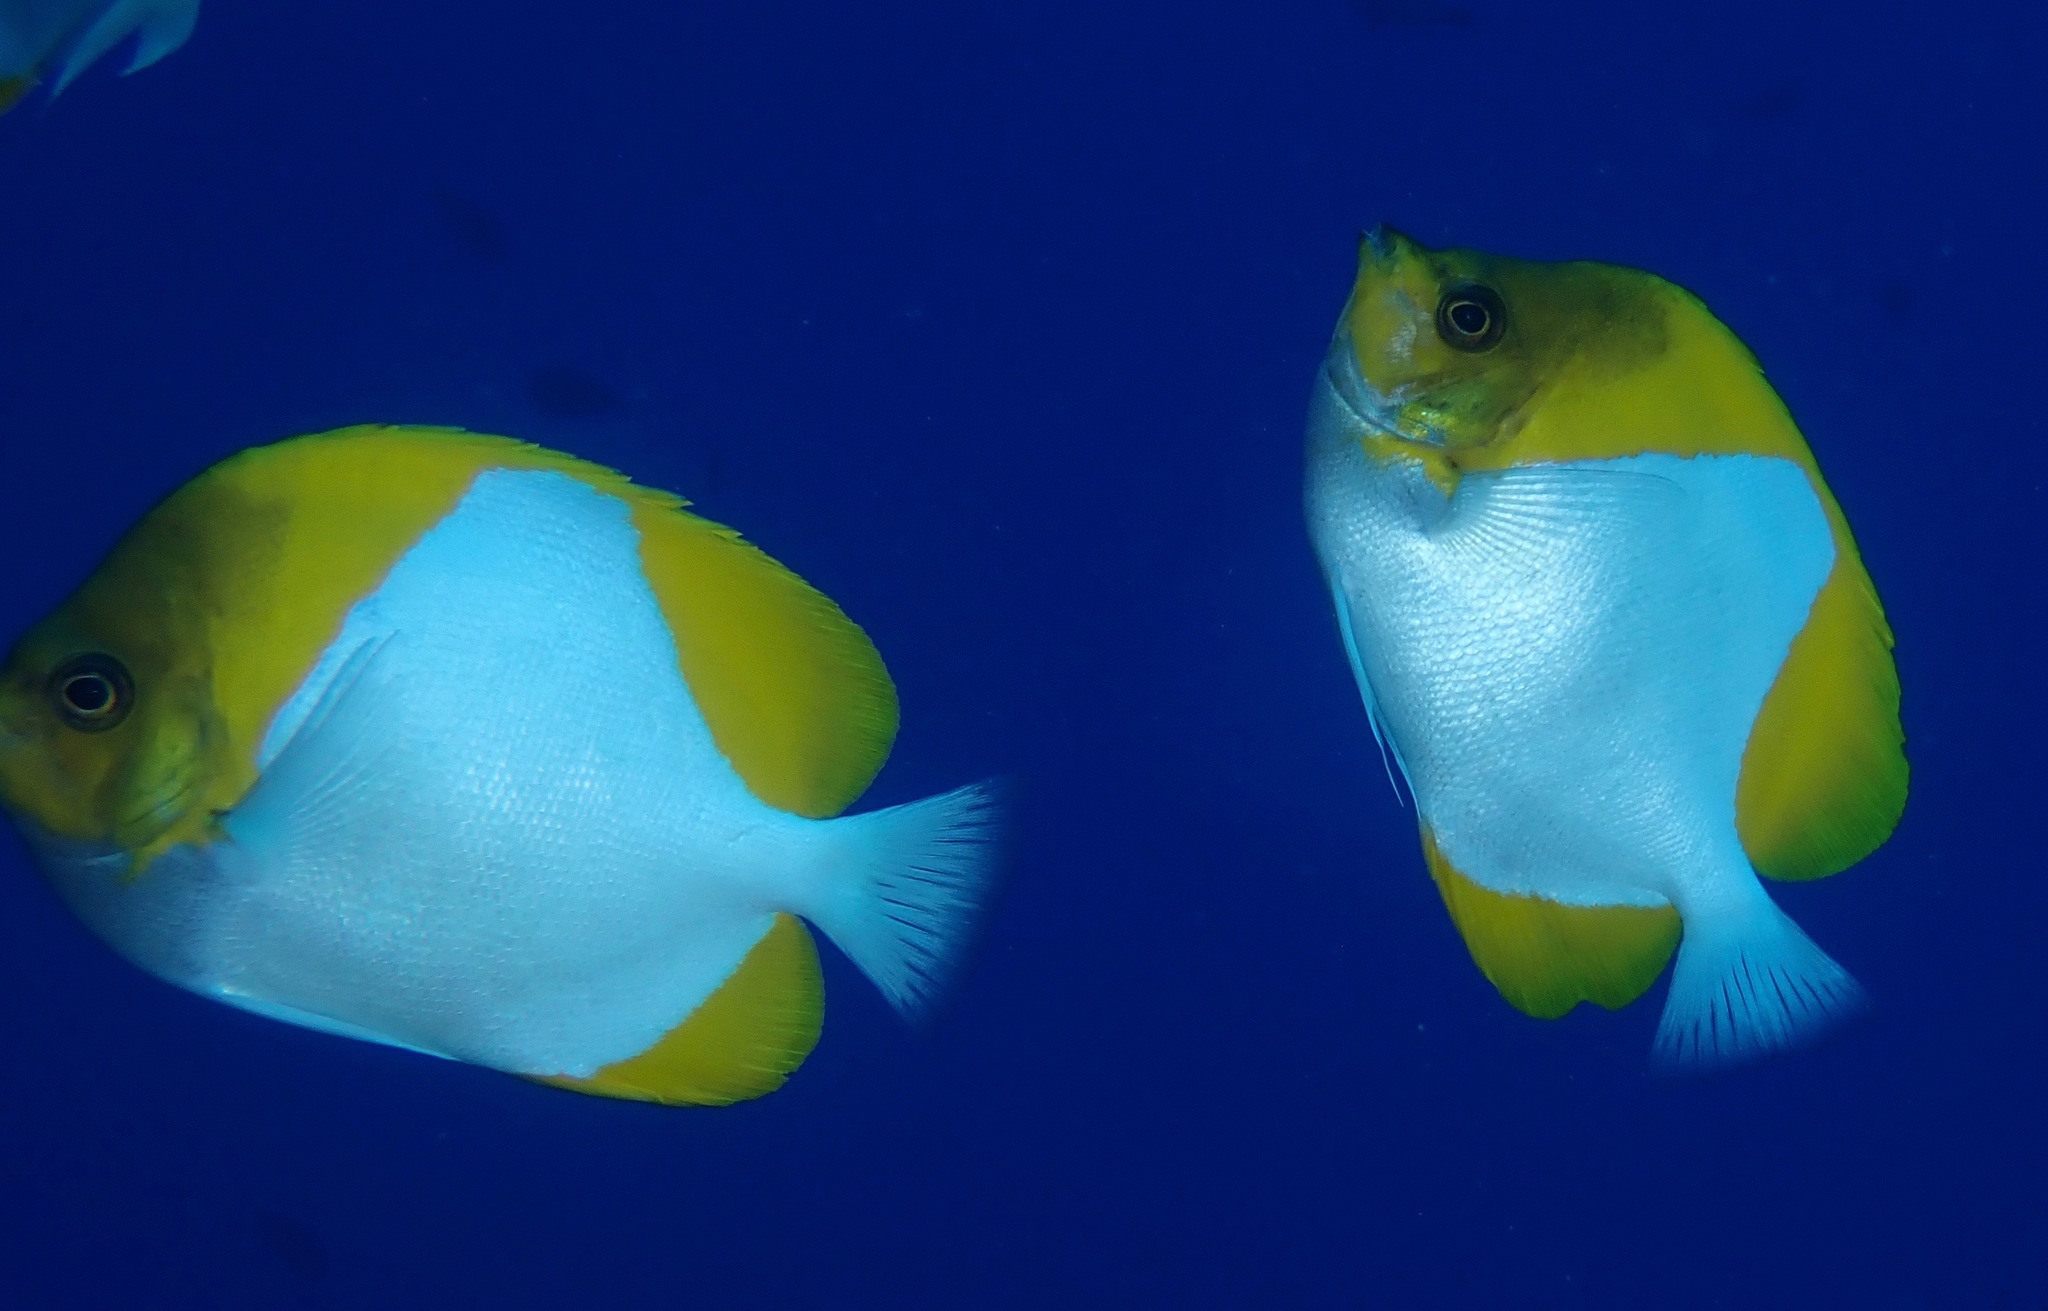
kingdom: Animalia
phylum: Chordata
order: Perciformes
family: Chaetodontidae
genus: Hemitaurichthys
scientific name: Hemitaurichthys polylepis
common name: Brushytoothed butterflyfish
